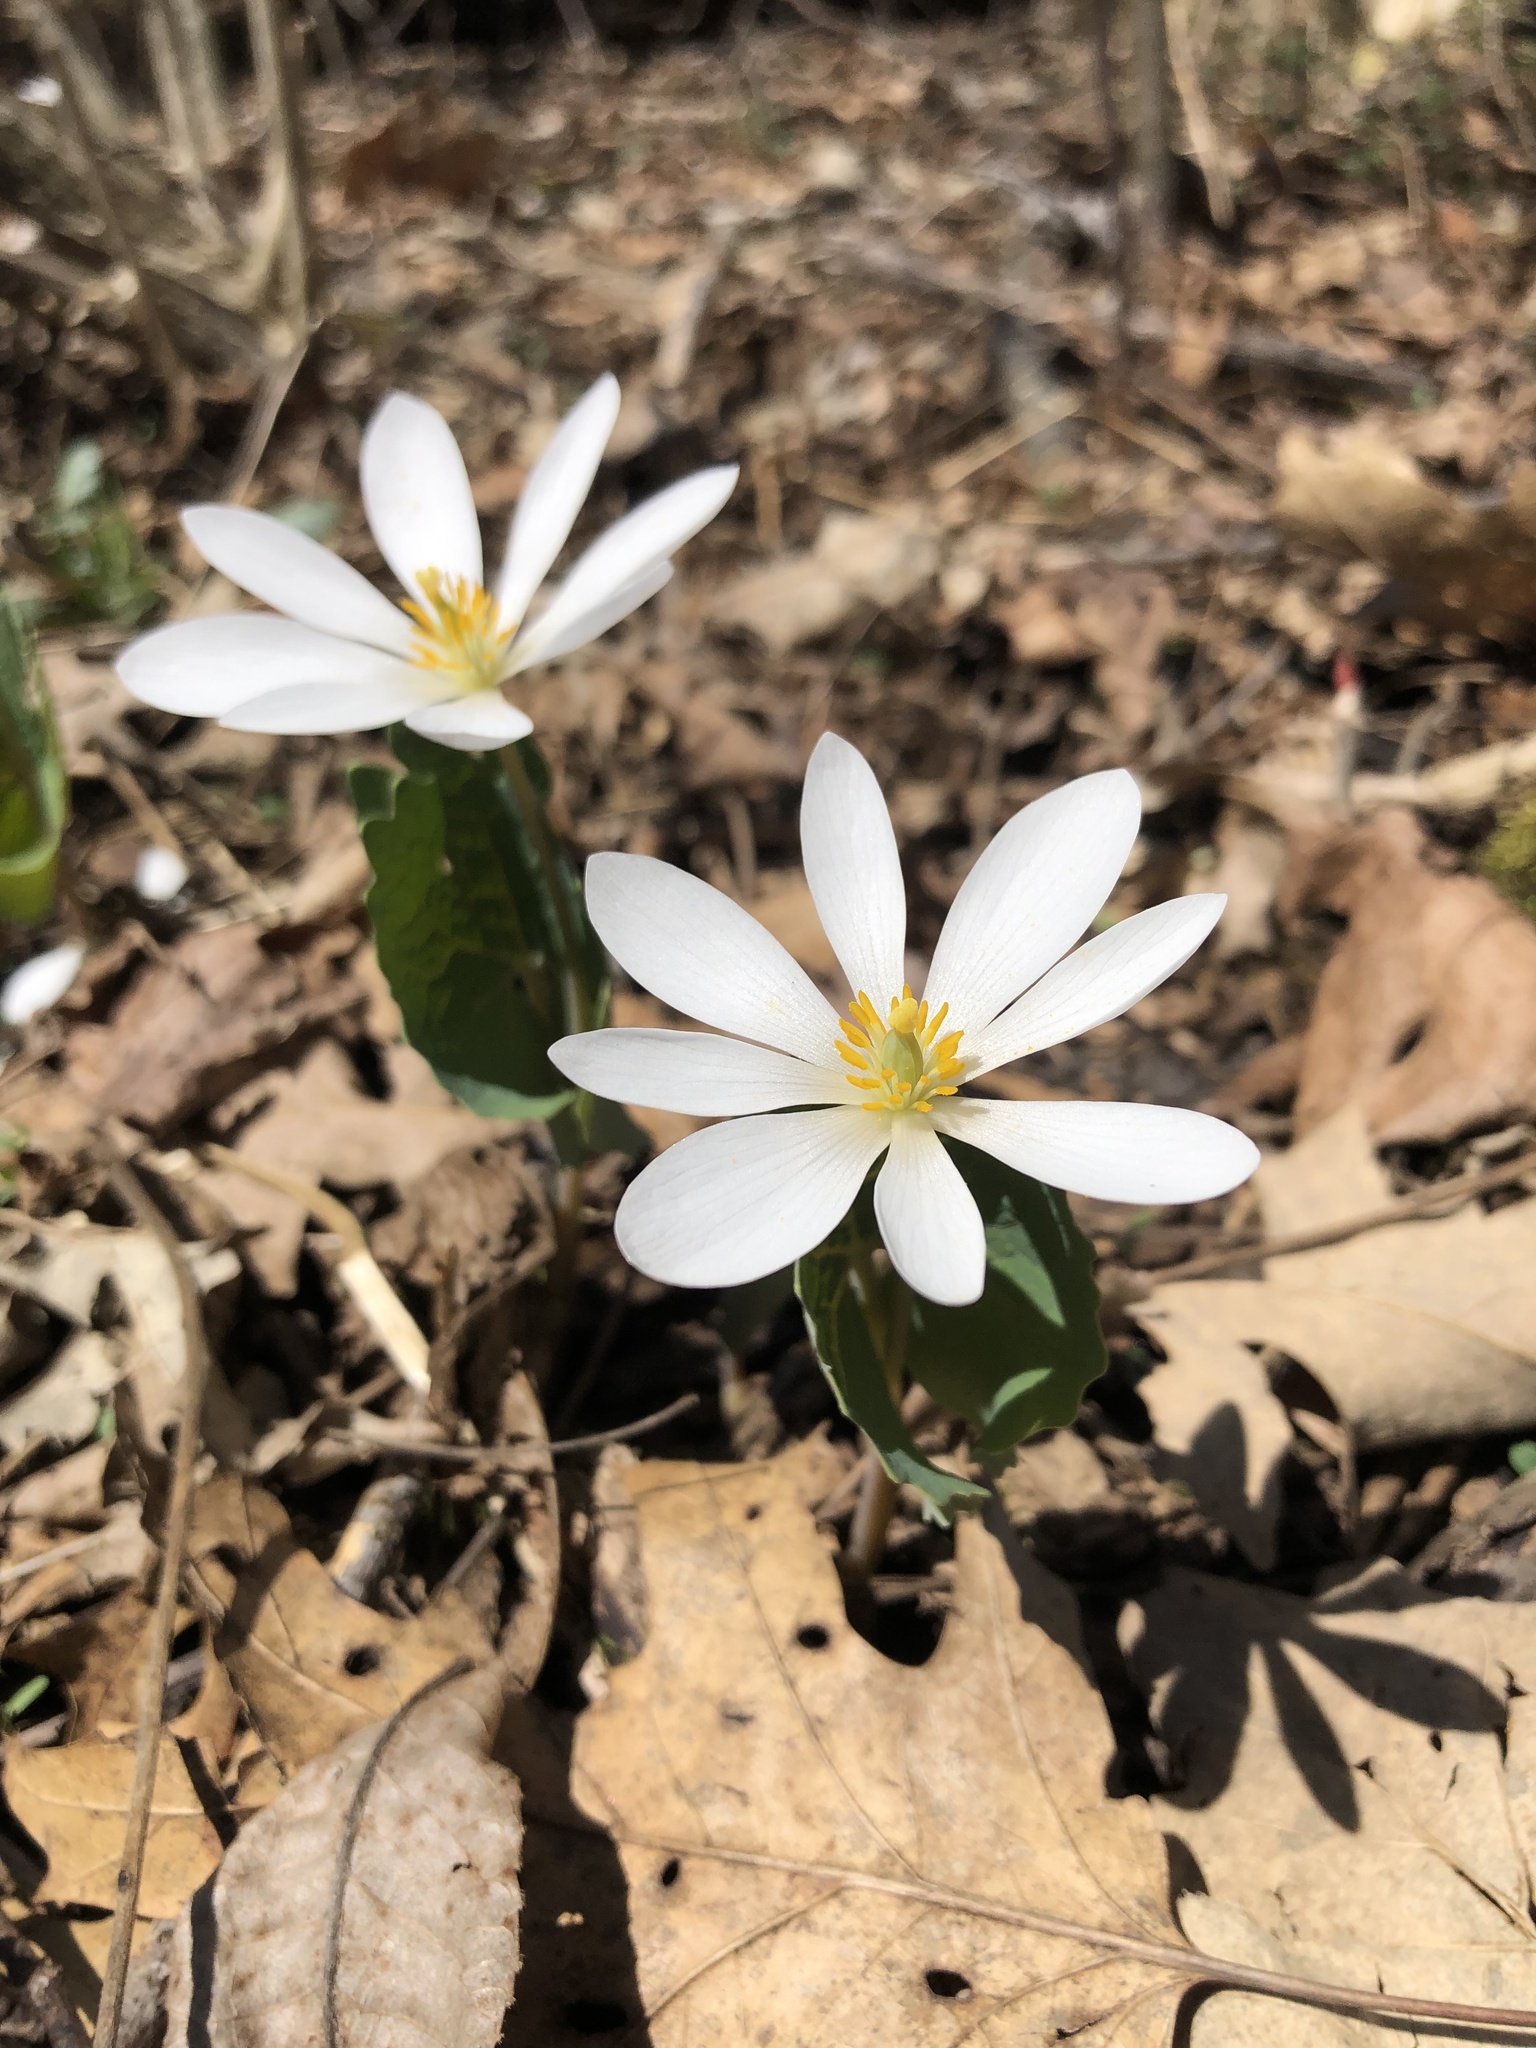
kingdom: Plantae
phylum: Tracheophyta
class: Magnoliopsida
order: Ranunculales
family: Papaveraceae
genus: Sanguinaria
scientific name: Sanguinaria canadensis
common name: Bloodroot
